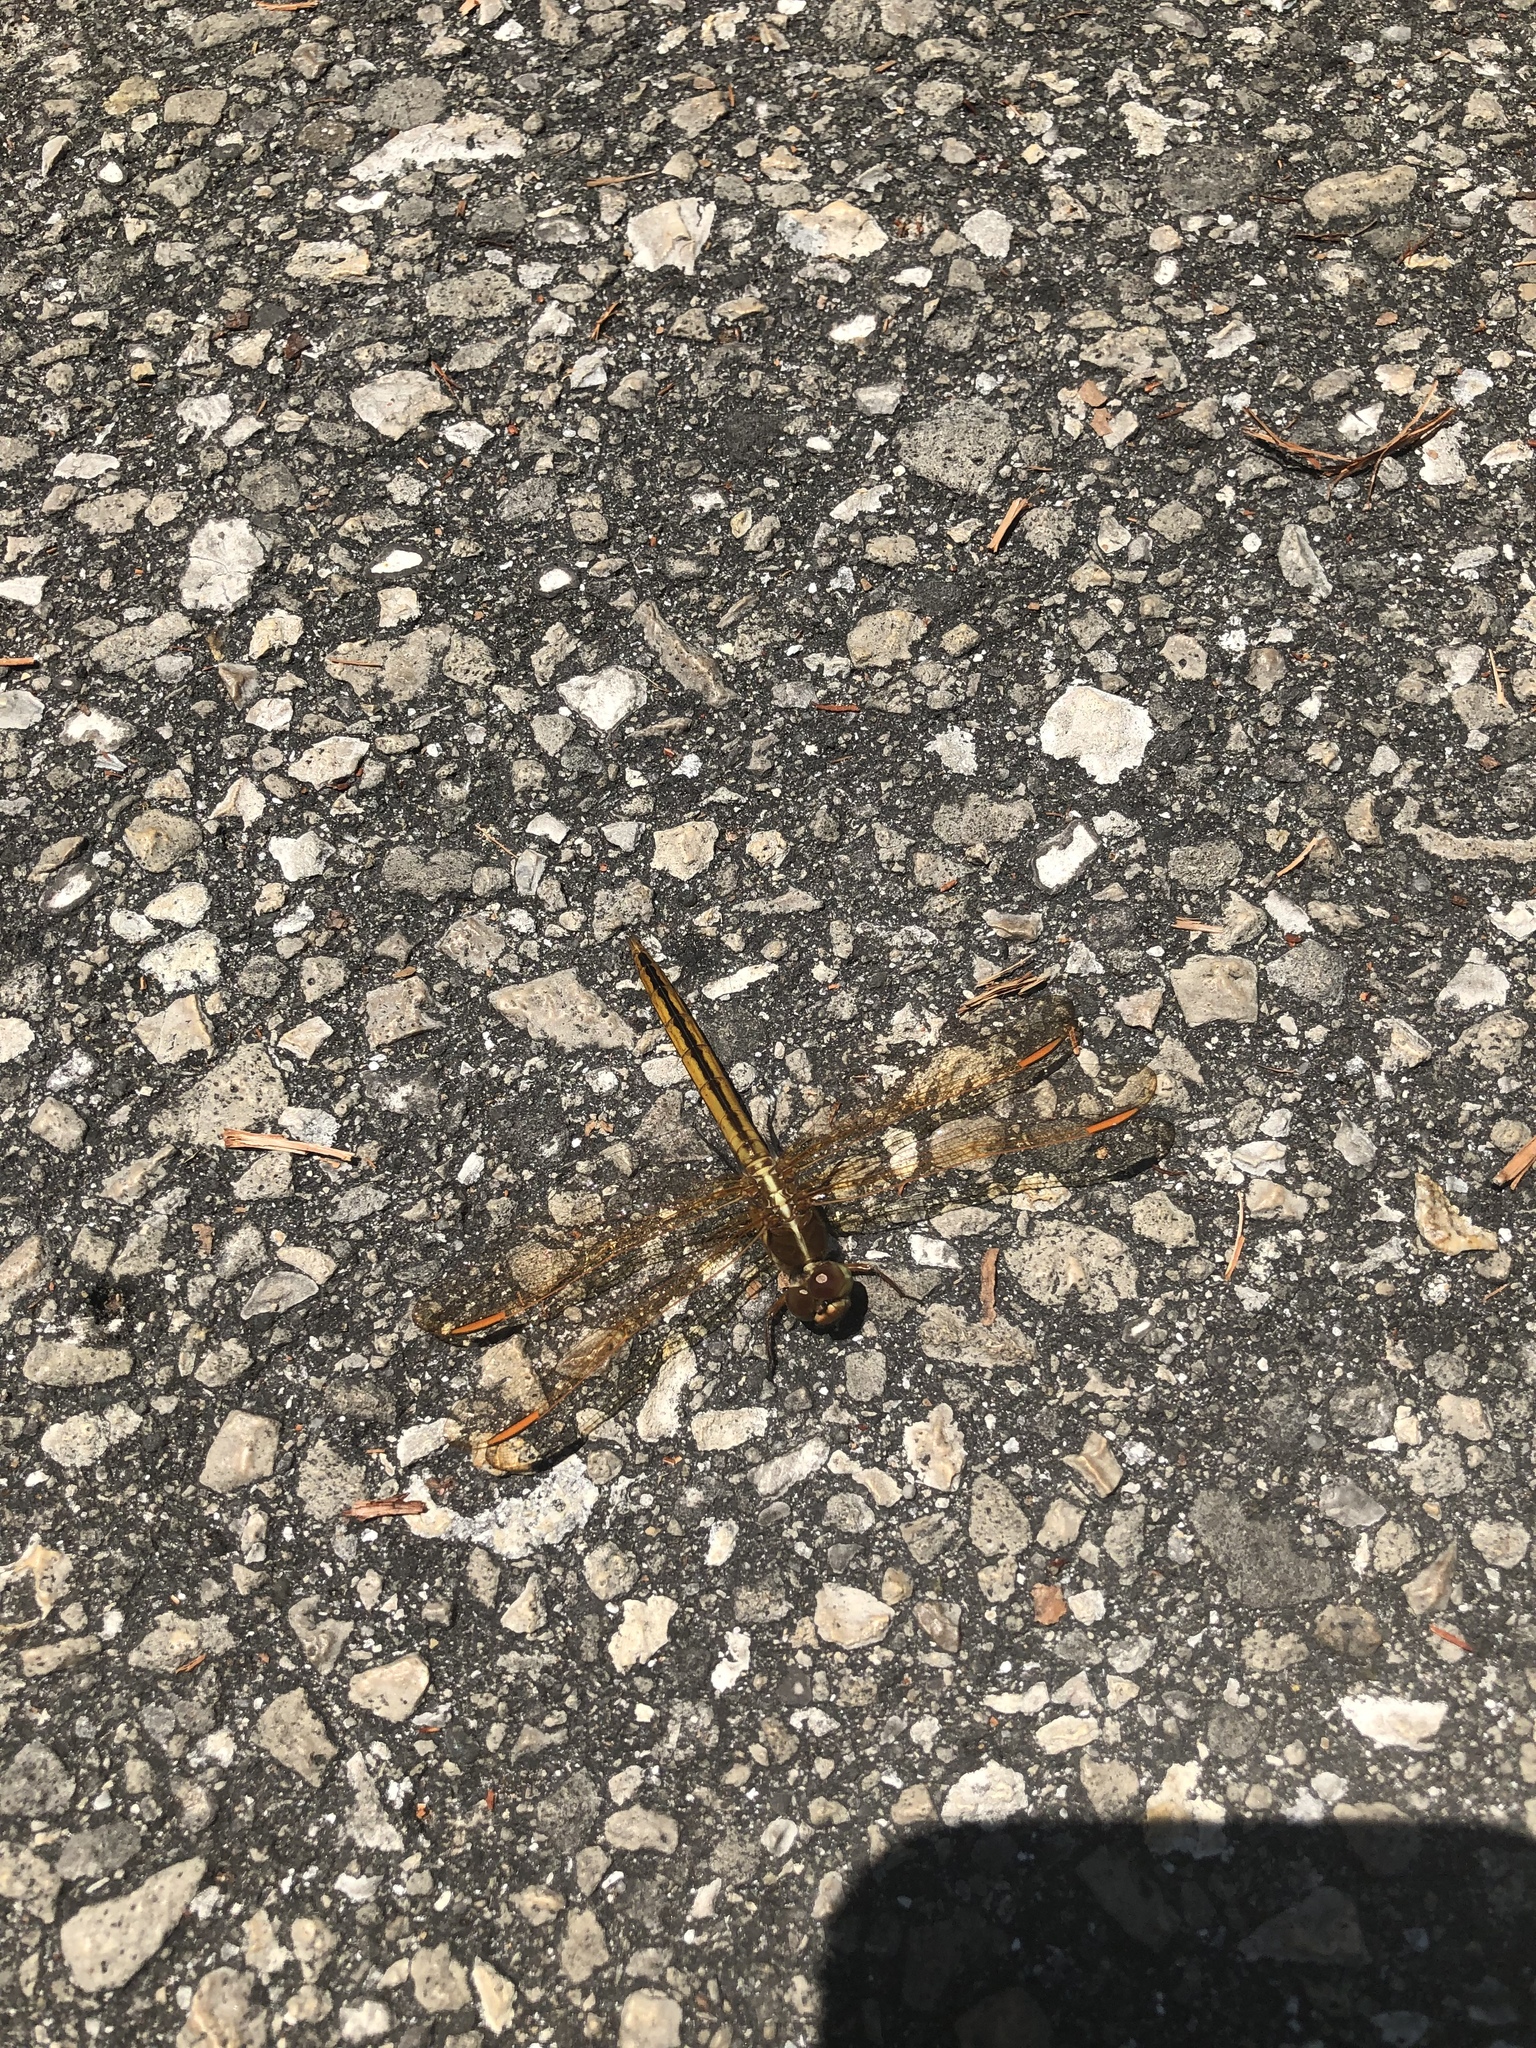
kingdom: Animalia
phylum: Arthropoda
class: Insecta
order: Odonata
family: Libellulidae
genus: Libellula
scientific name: Libellula auripennis
